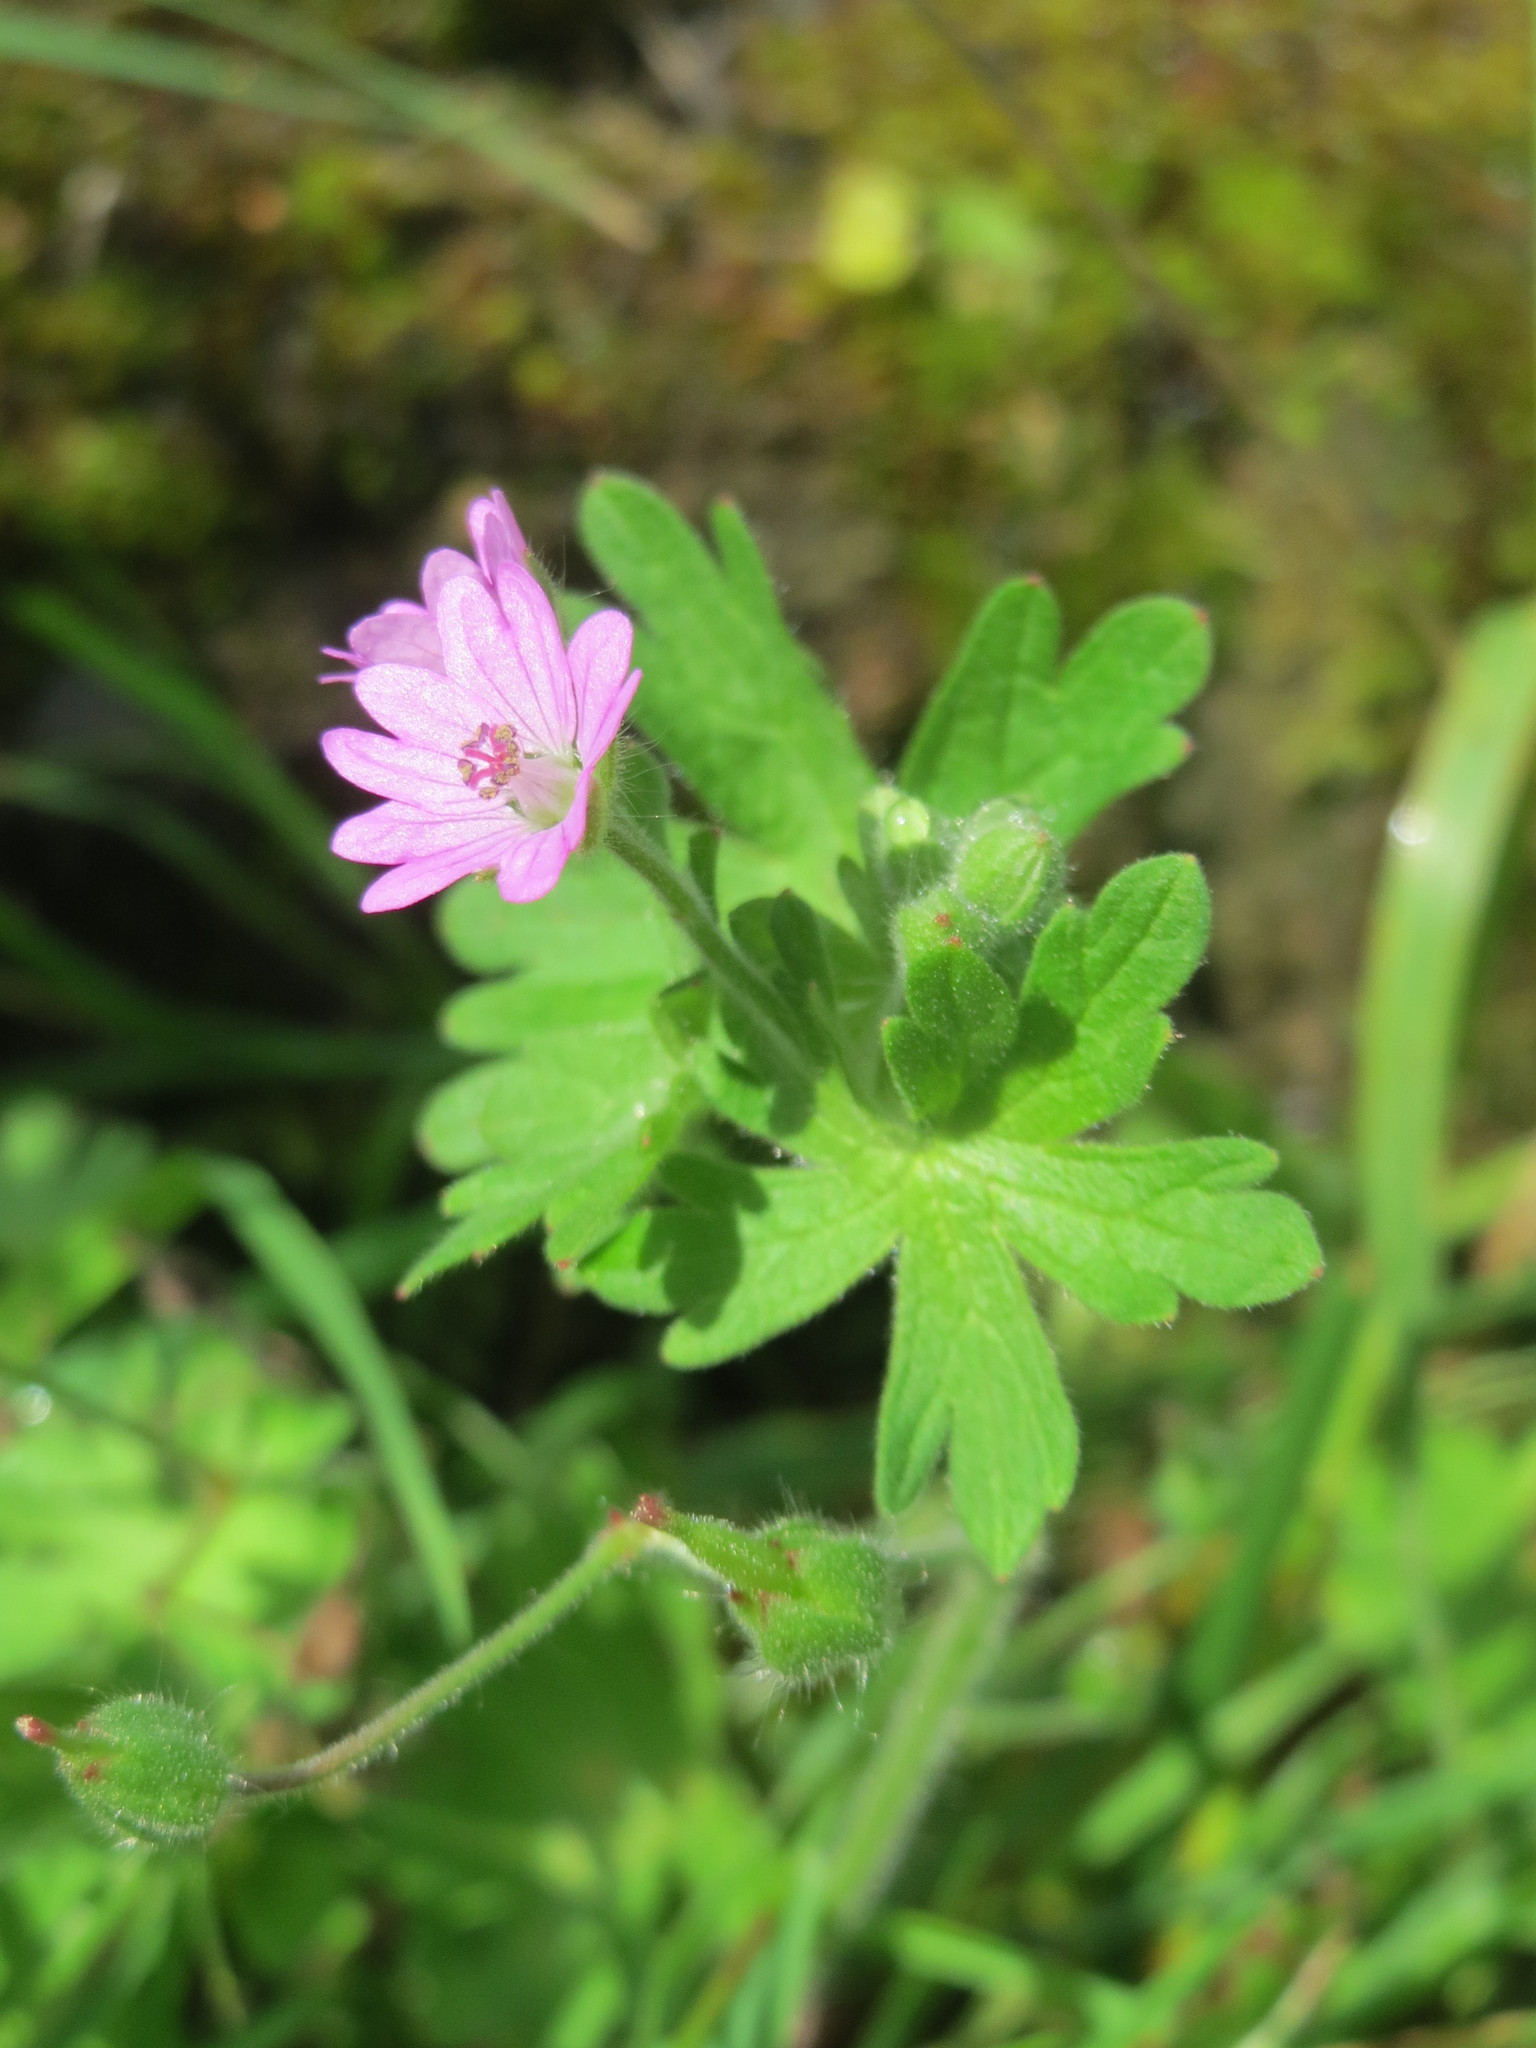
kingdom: Plantae
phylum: Tracheophyta
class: Magnoliopsida
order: Geraniales
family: Geraniaceae
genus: Geranium
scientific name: Geranium molle
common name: Dove's-foot crane's-bill
